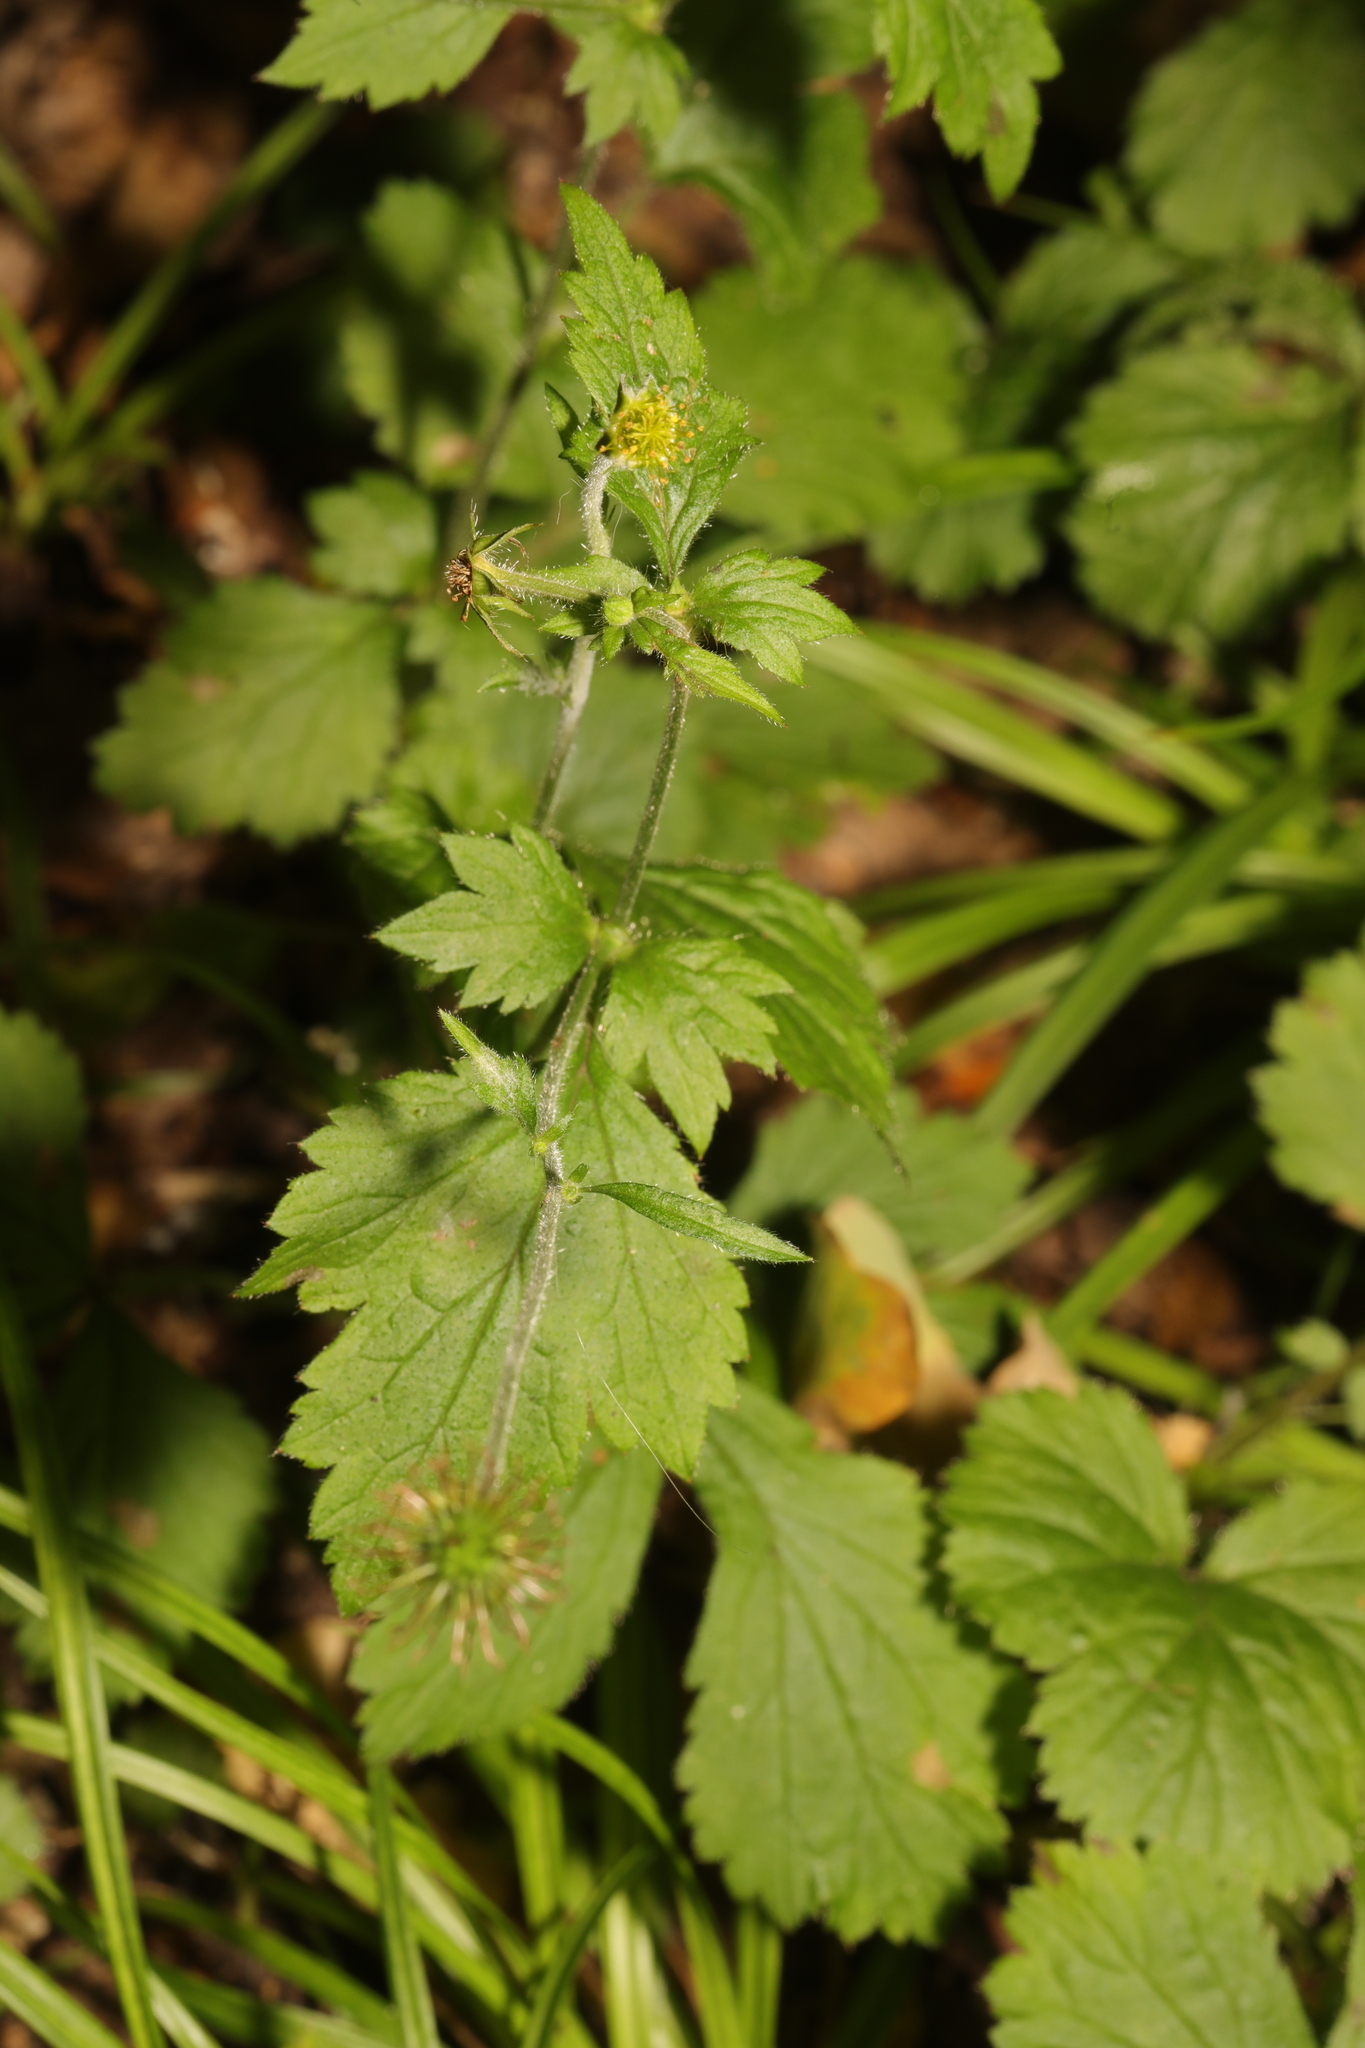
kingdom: Plantae
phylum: Tracheophyta
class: Magnoliopsida
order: Rosales
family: Rosaceae
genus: Geum
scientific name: Geum urbanum
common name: Wood avens
